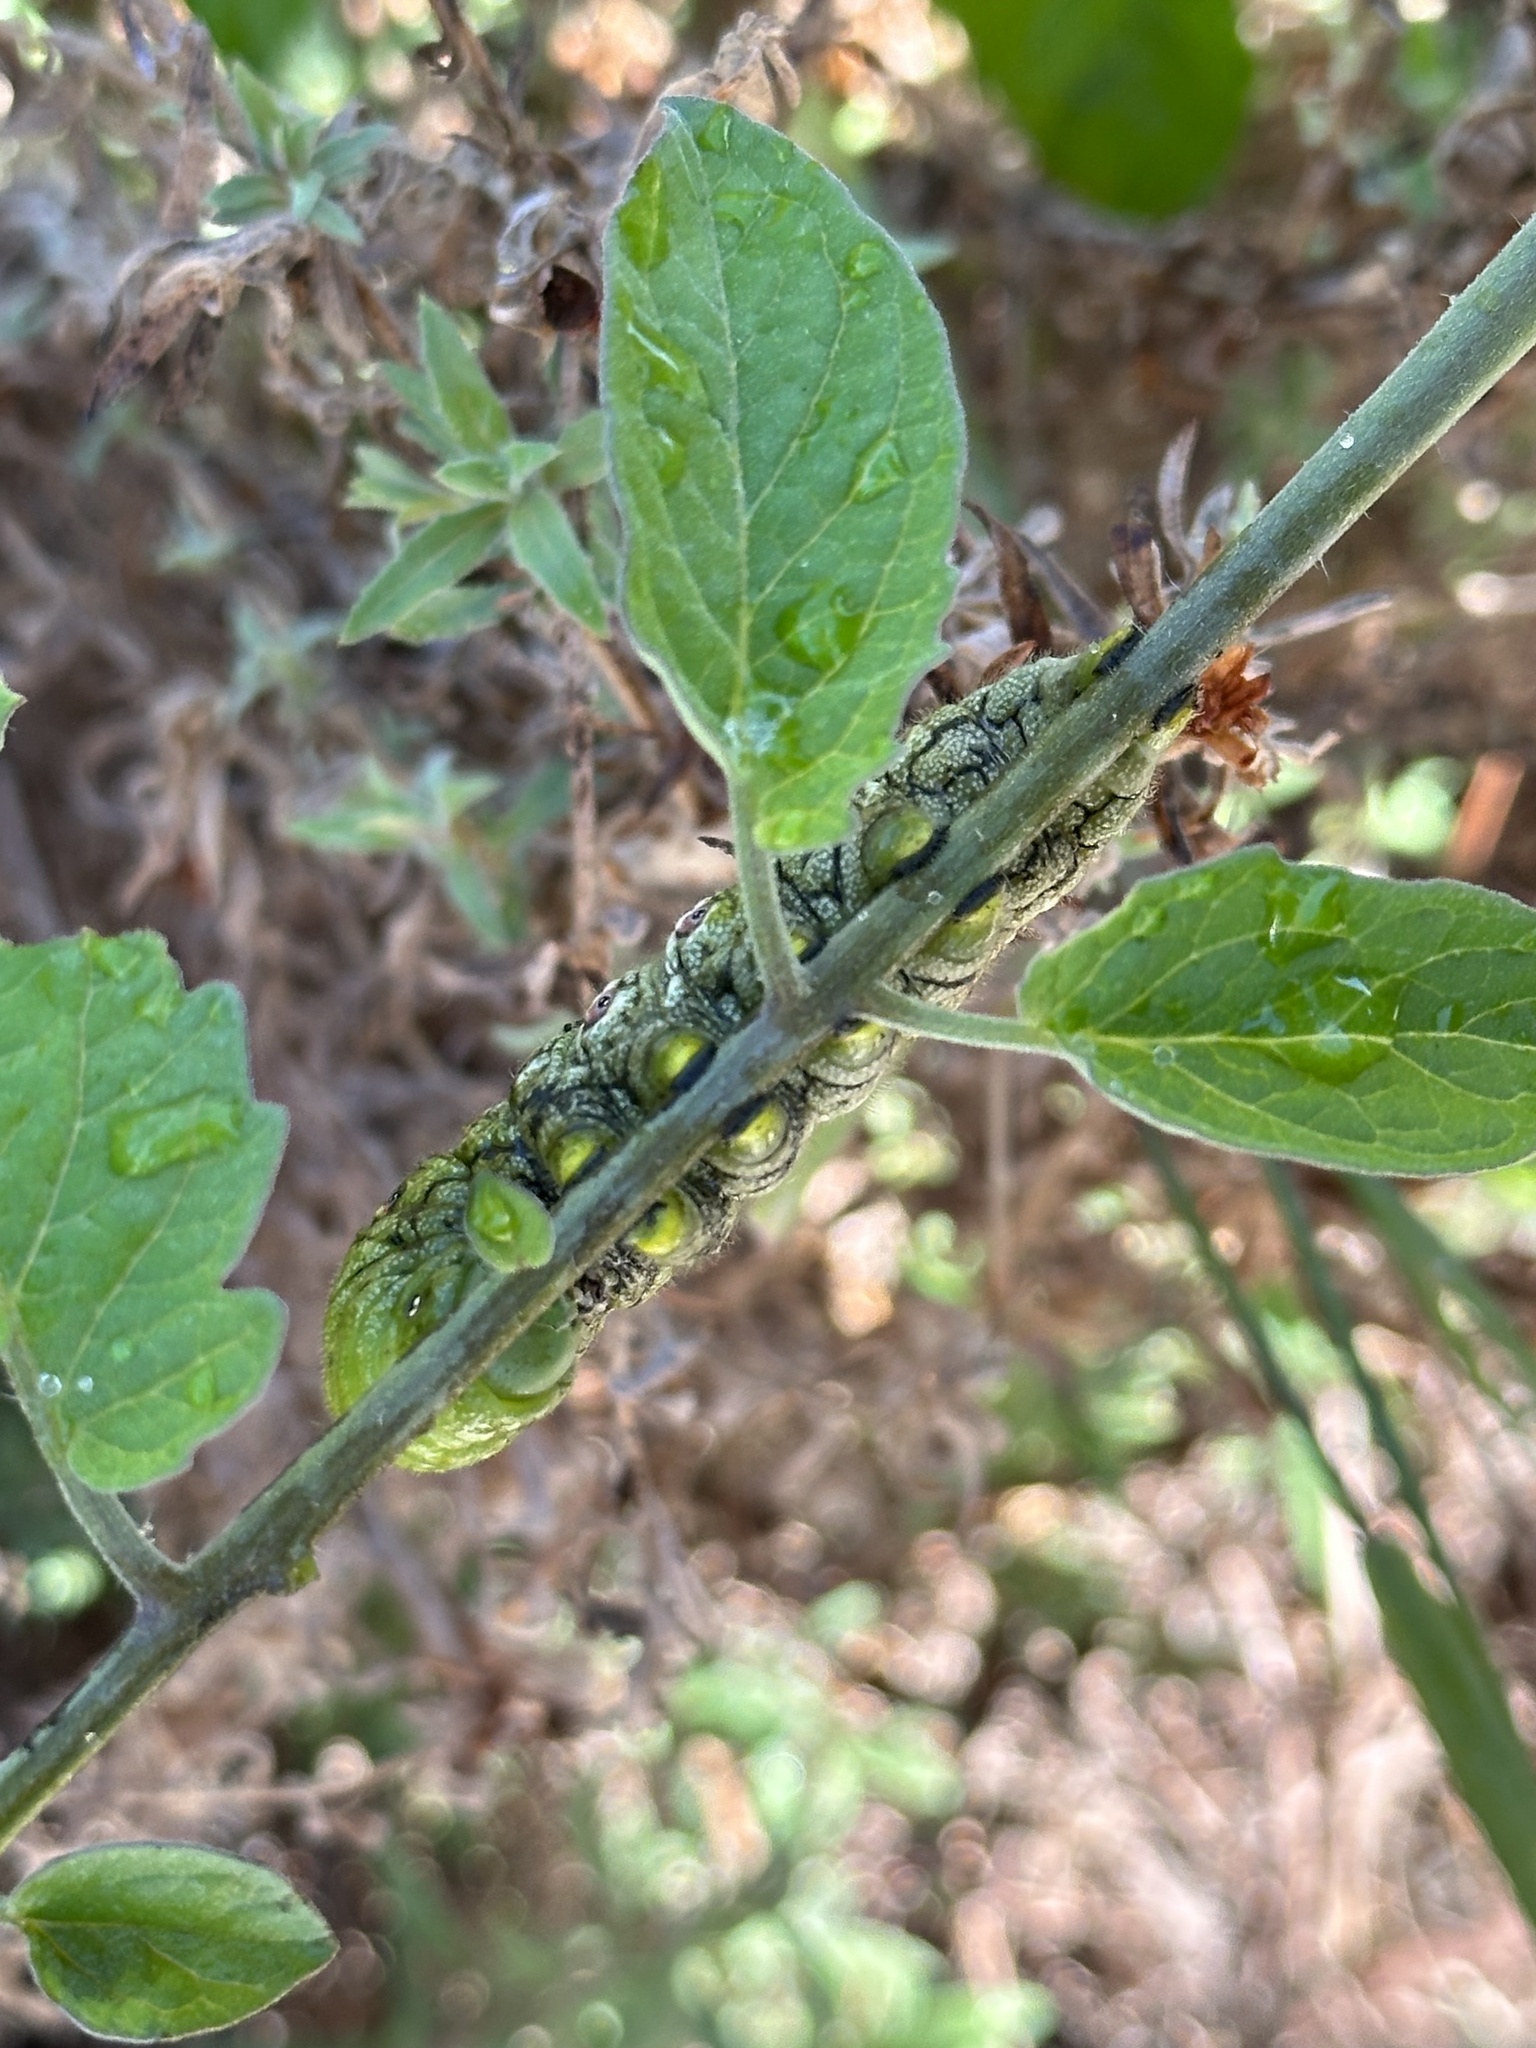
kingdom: Animalia
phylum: Arthropoda
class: Insecta
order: Lepidoptera
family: Sphingidae
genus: Manduca
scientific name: Manduca sexta
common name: Carolina sphinx
